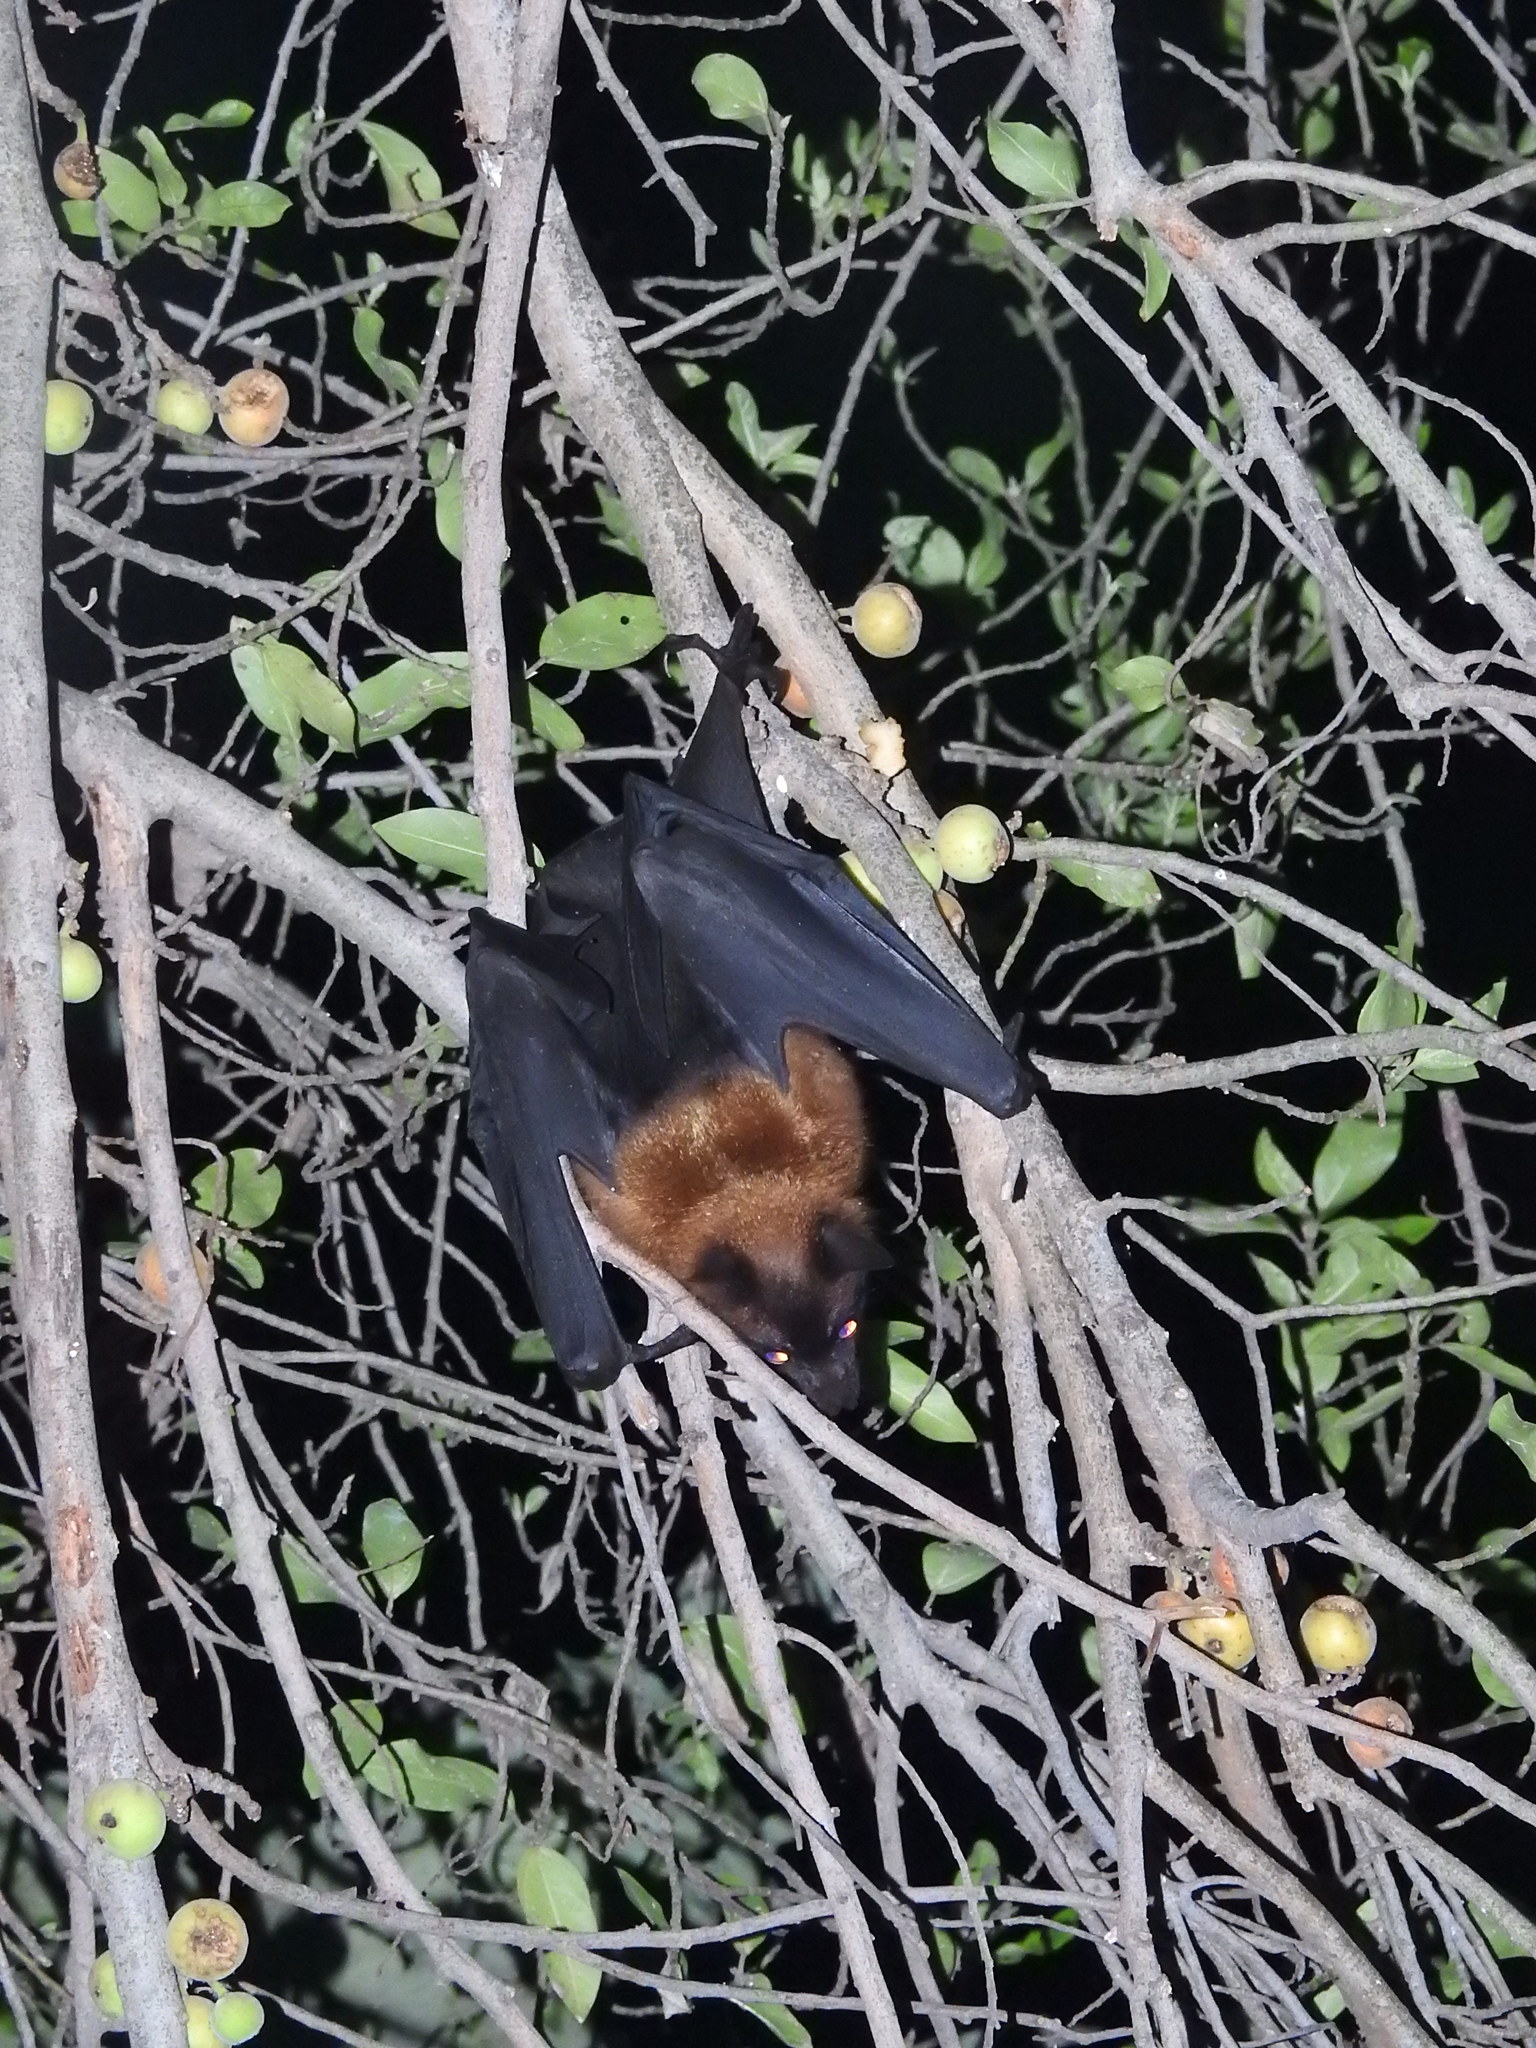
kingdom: Animalia
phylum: Chordata
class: Mammalia
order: Chiroptera
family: Pteropodidae
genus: Pteropus
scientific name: Pteropus vampyrus
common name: Large flying fox
